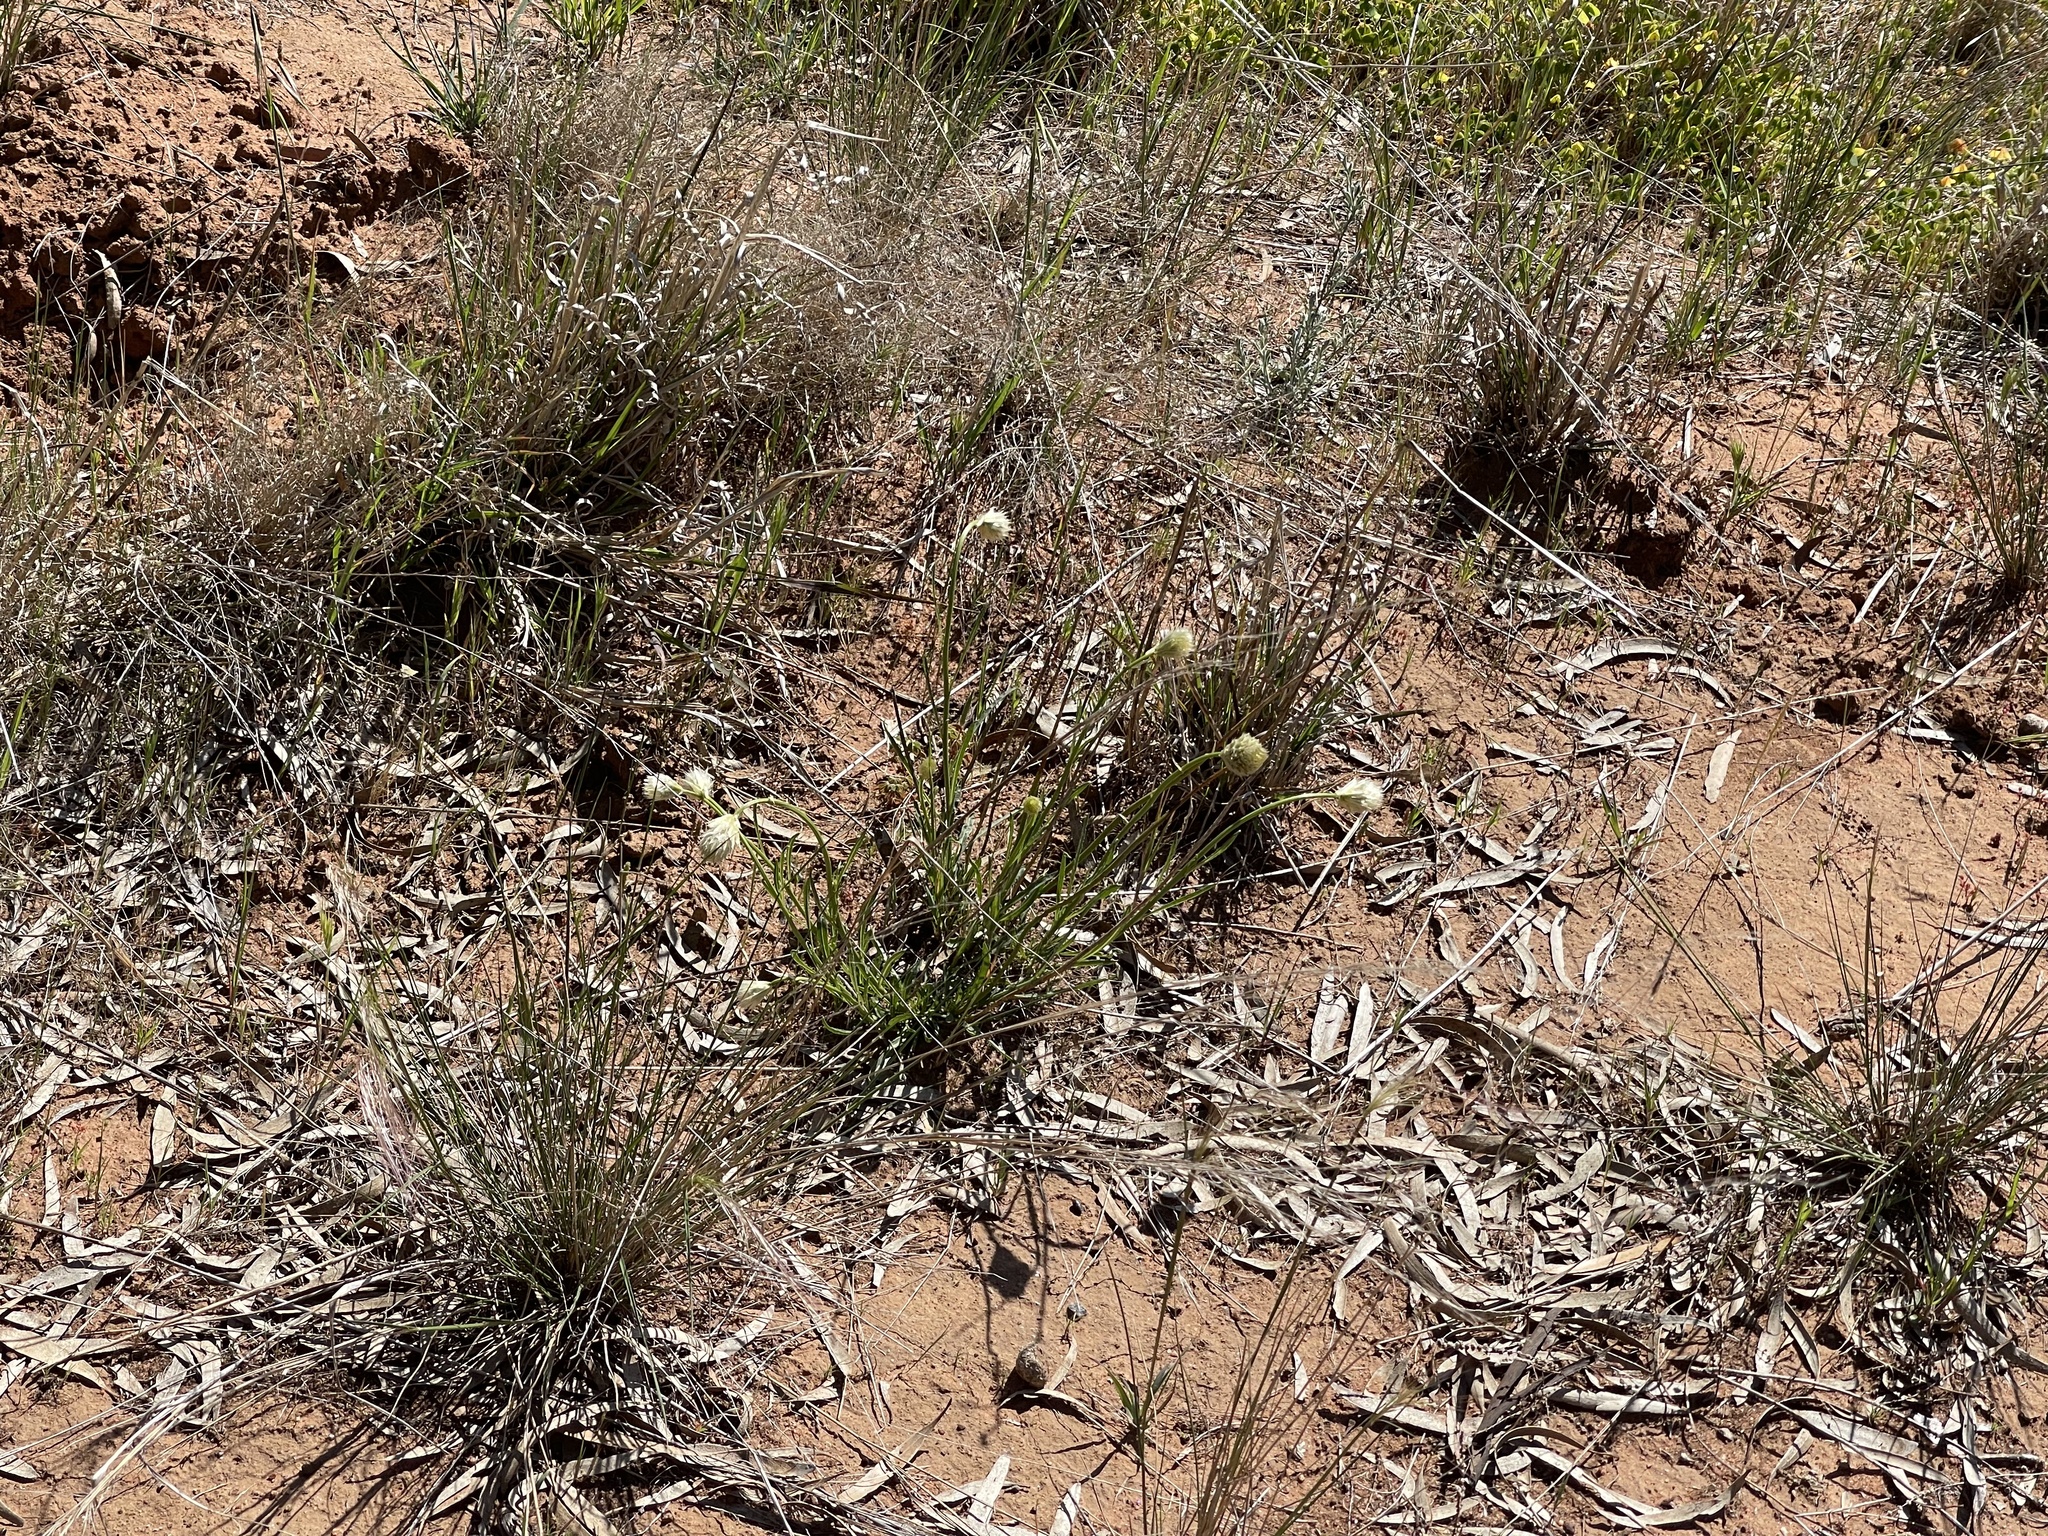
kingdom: Plantae
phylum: Tracheophyta
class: Magnoliopsida
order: Caryophyllales
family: Amaranthaceae
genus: Ptilotus
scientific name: Ptilotus macrocephalus
